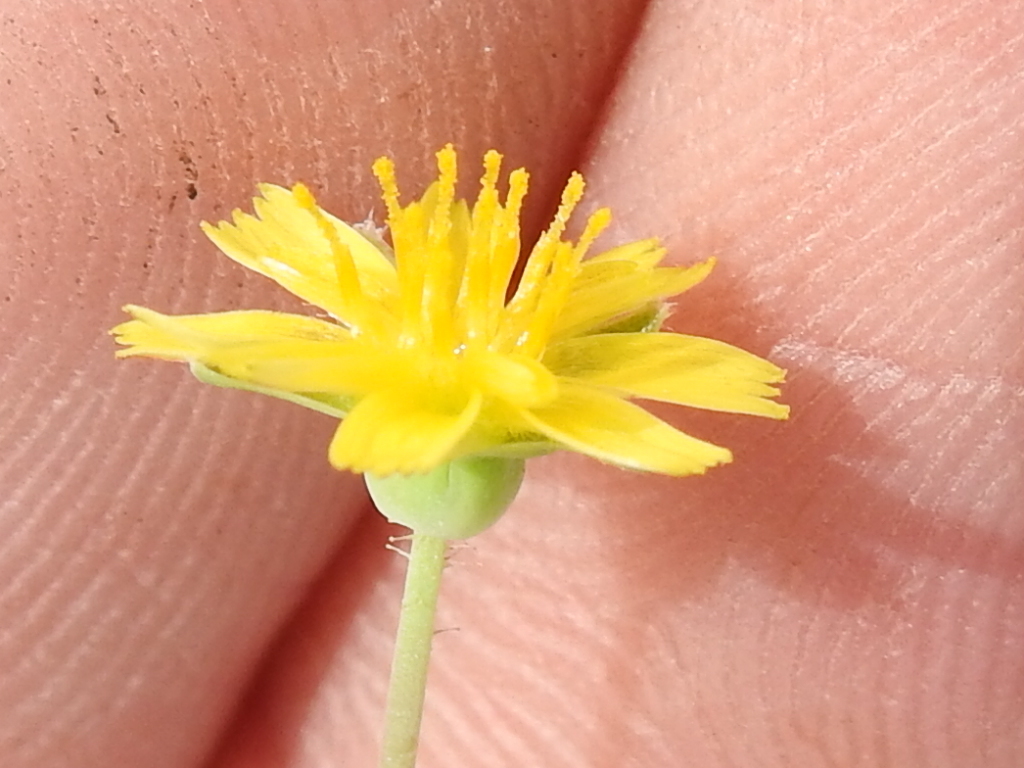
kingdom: Plantae
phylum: Tracheophyta
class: Magnoliopsida
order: Asterales
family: Asteraceae
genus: Krigia
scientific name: Krigia occidentalis
